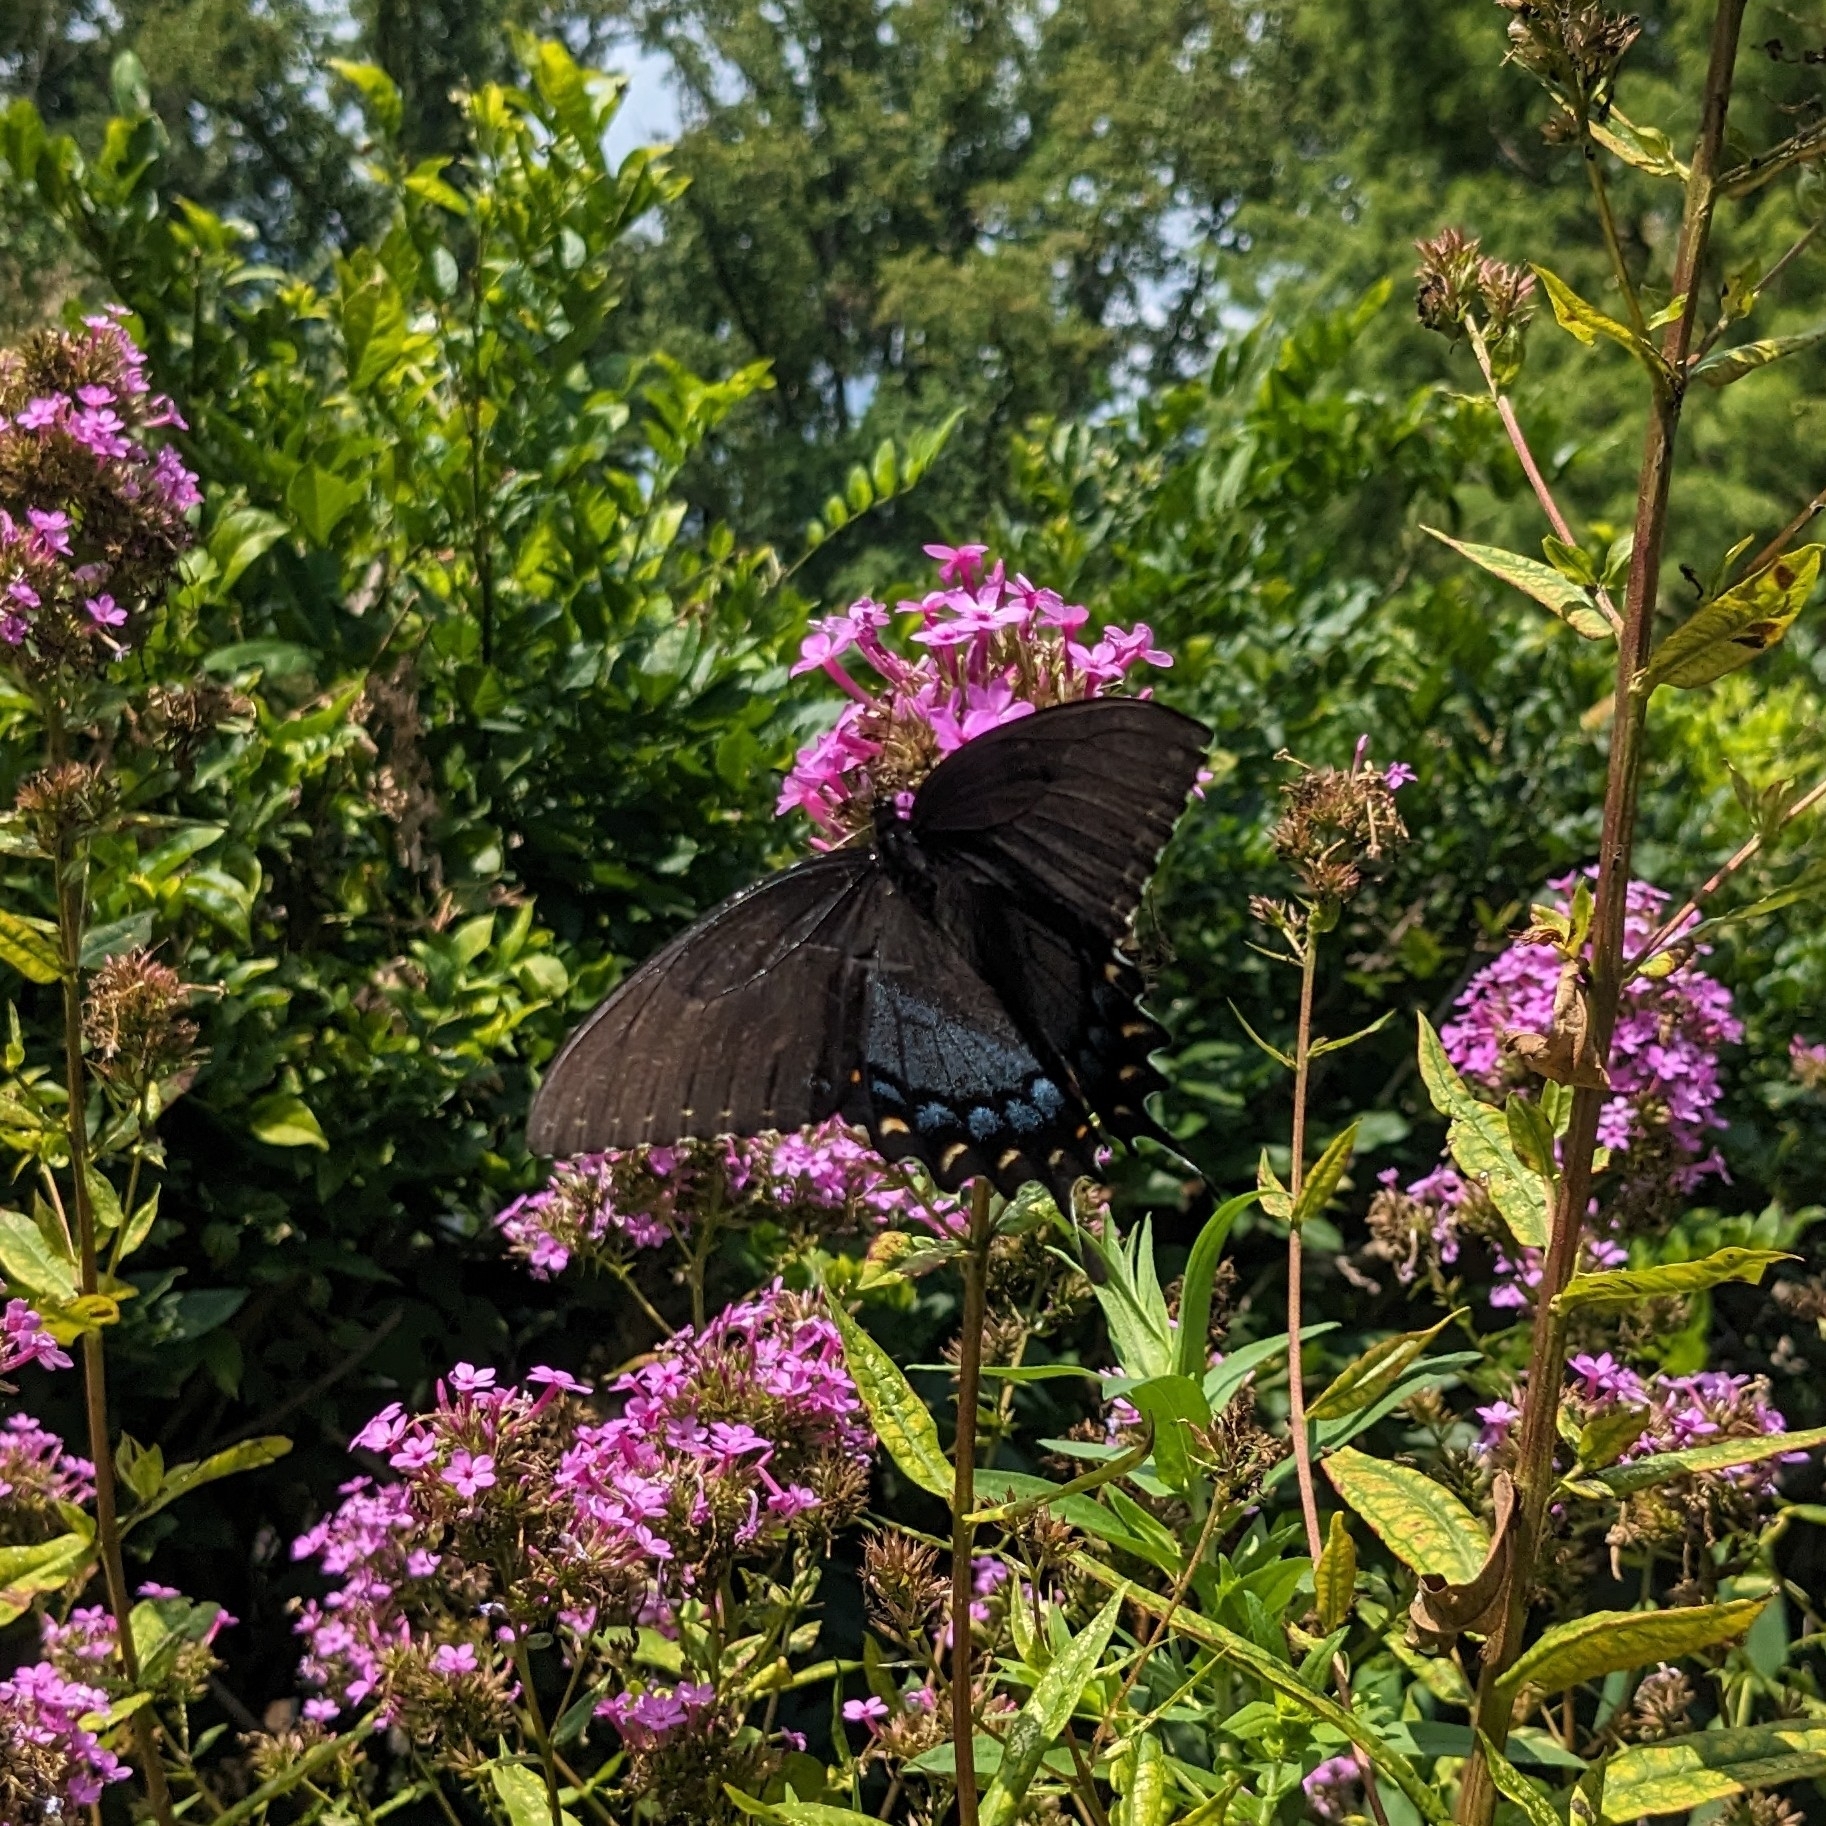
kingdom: Animalia
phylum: Arthropoda
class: Insecta
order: Lepidoptera
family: Papilionidae
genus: Papilio
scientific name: Papilio glaucus
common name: Tiger swallowtail
